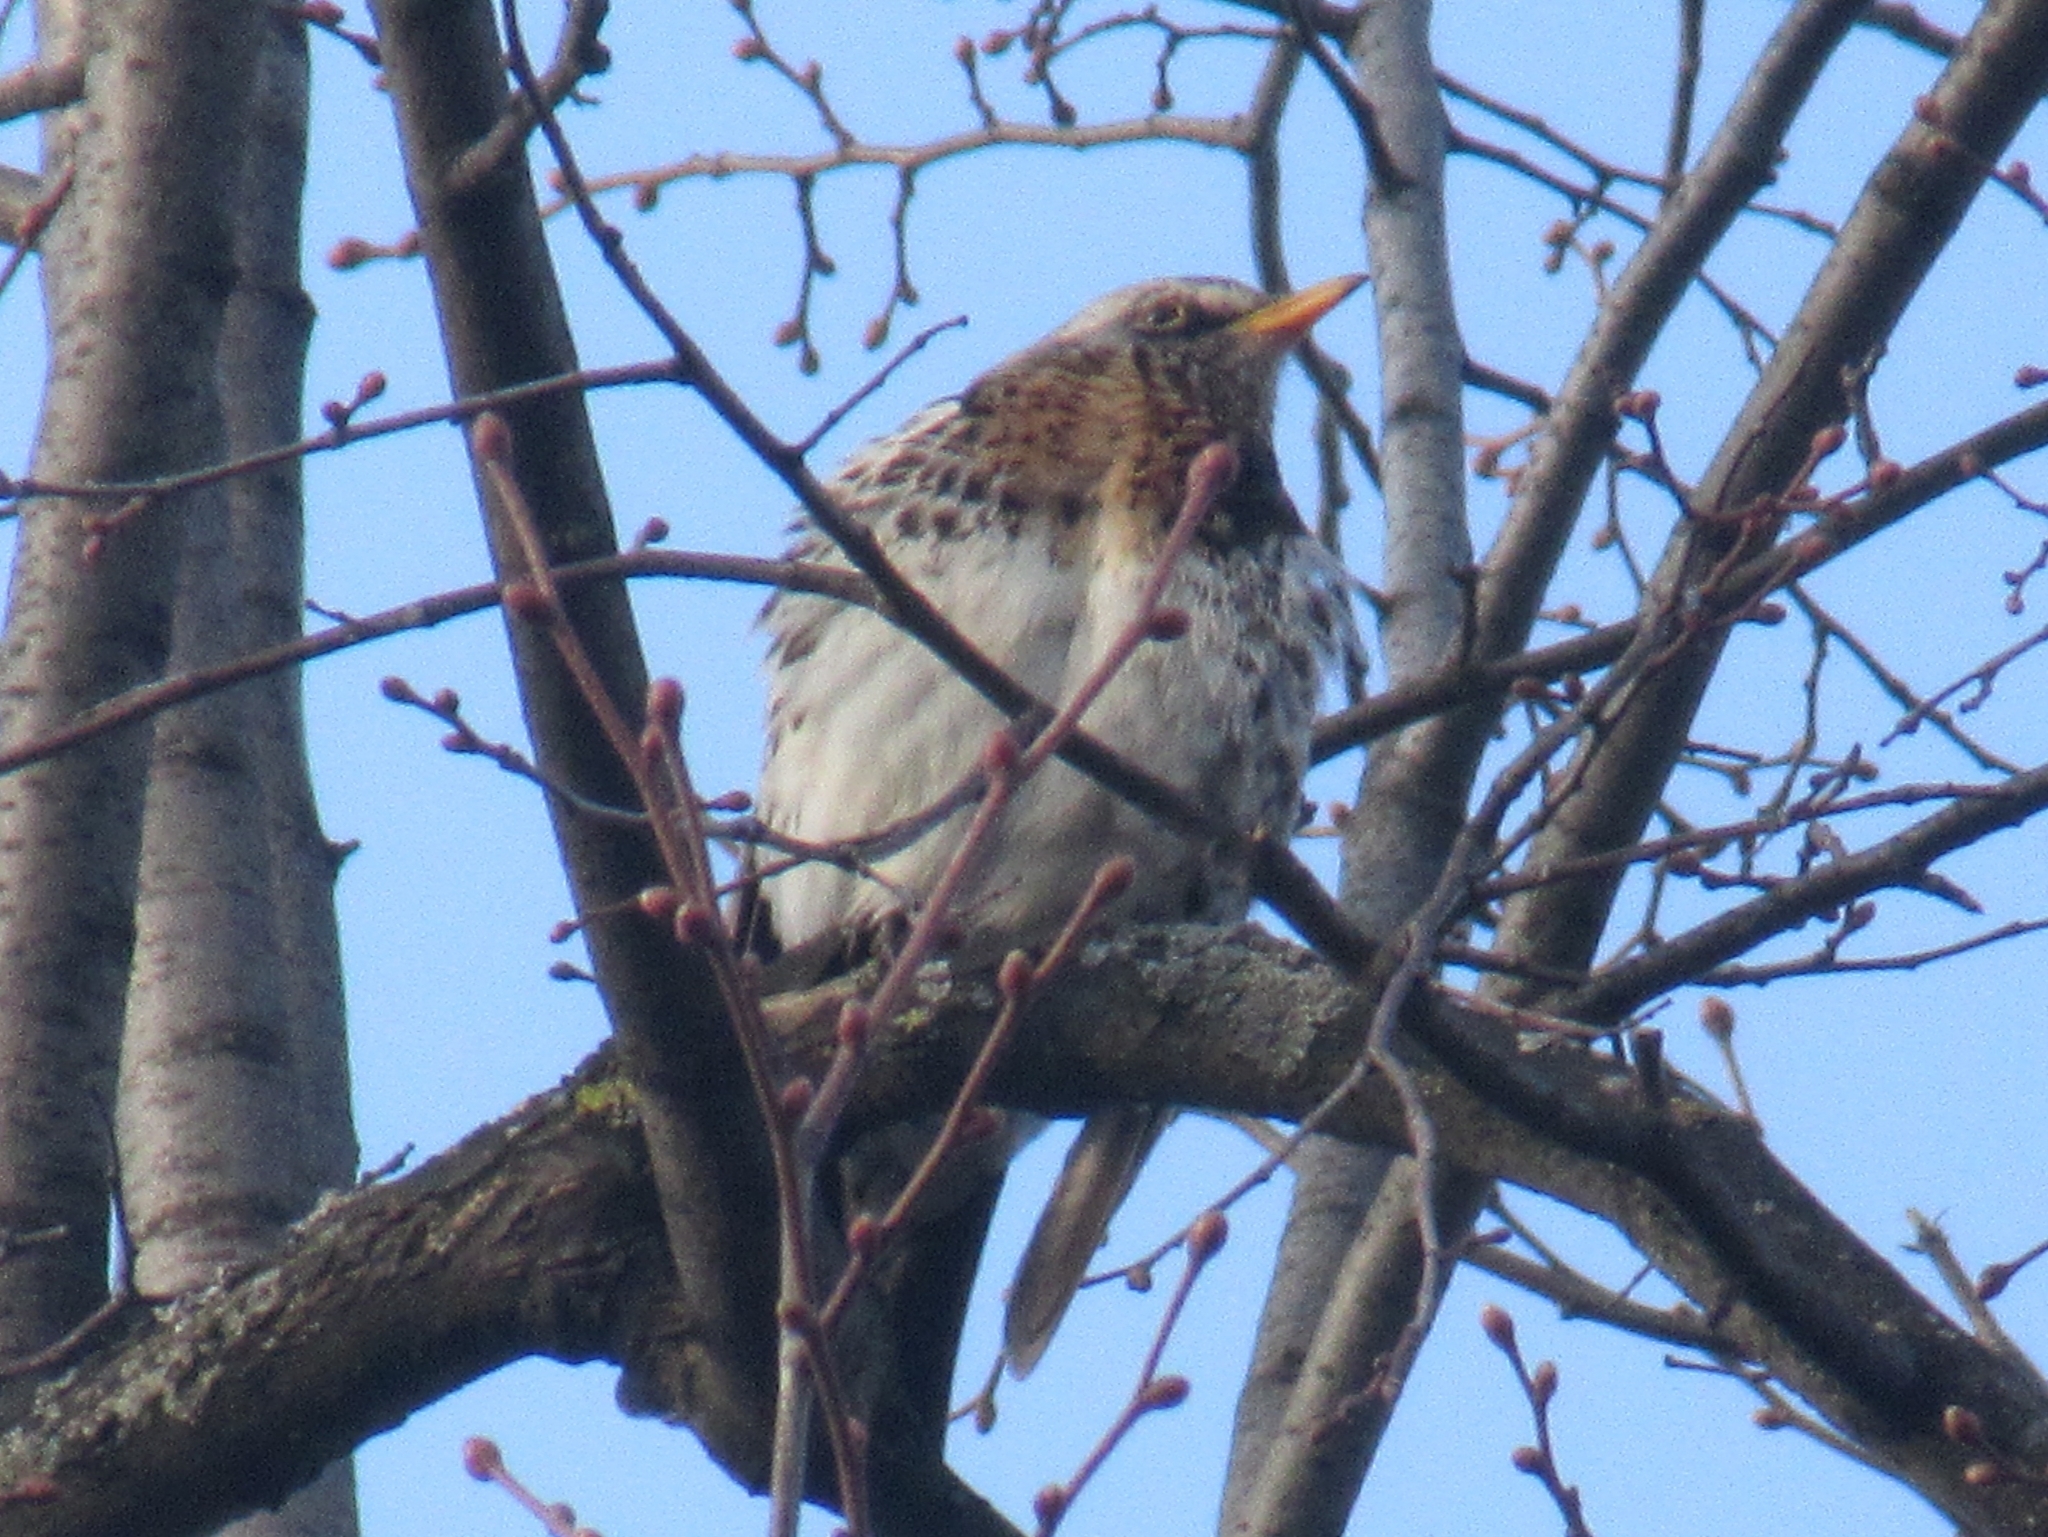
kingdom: Animalia
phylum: Chordata
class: Aves
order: Passeriformes
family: Turdidae
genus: Turdus
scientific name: Turdus pilaris
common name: Fieldfare
